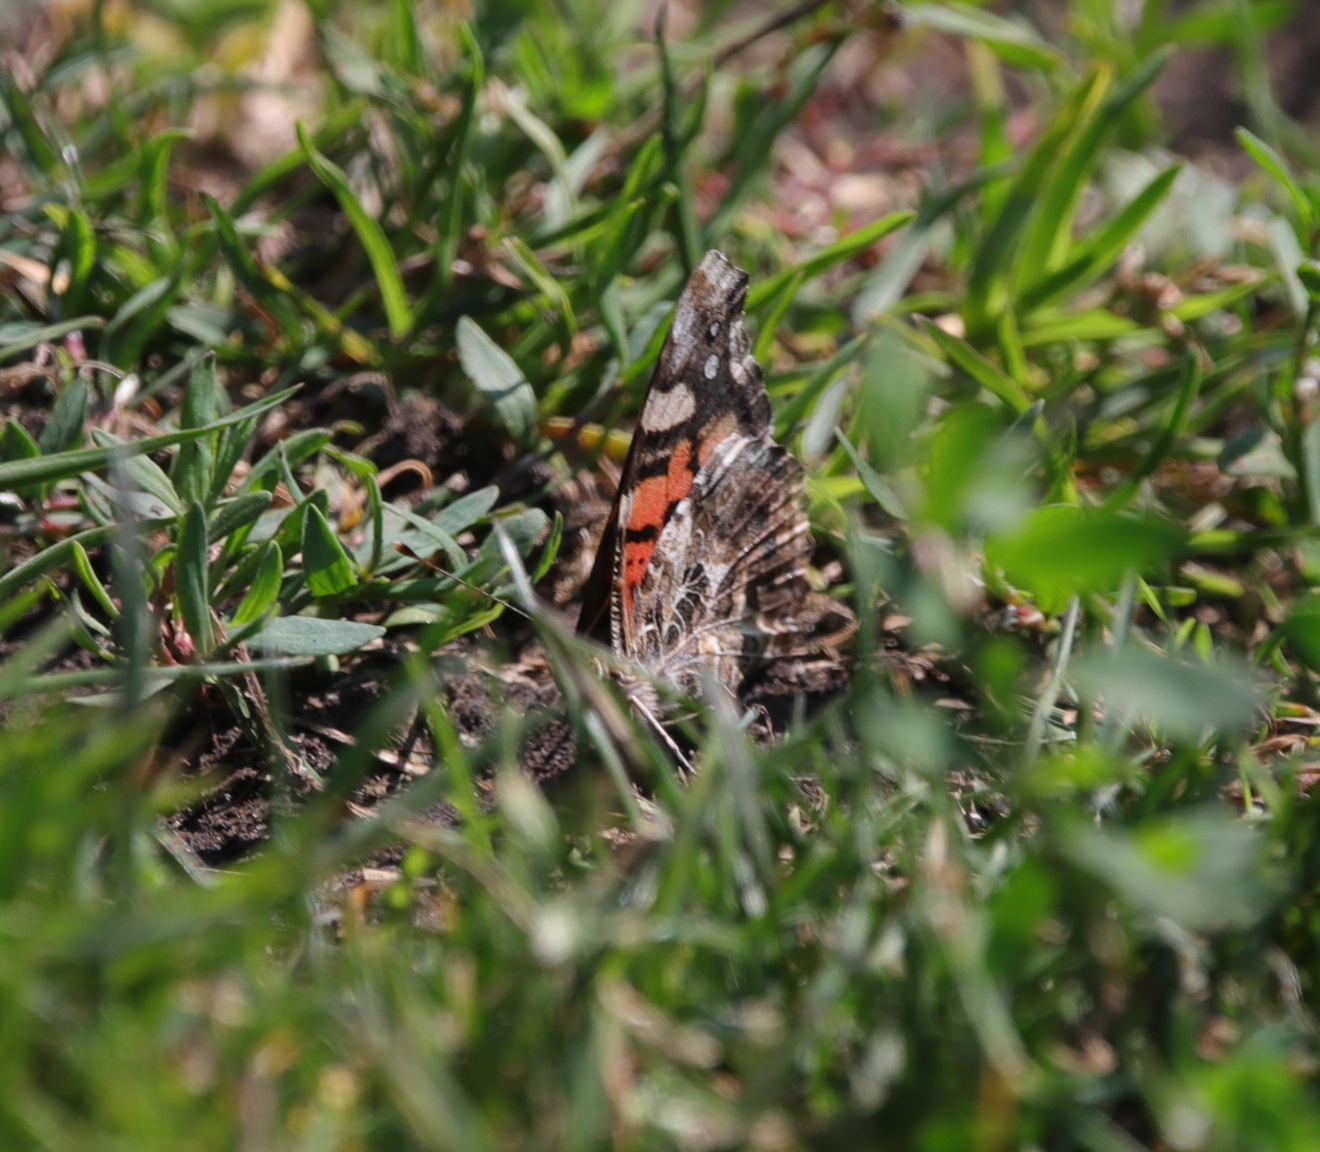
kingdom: Animalia
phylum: Arthropoda
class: Insecta
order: Lepidoptera
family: Nymphalidae
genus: Vanessa
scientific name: Vanessa annabella
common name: West coast lady
